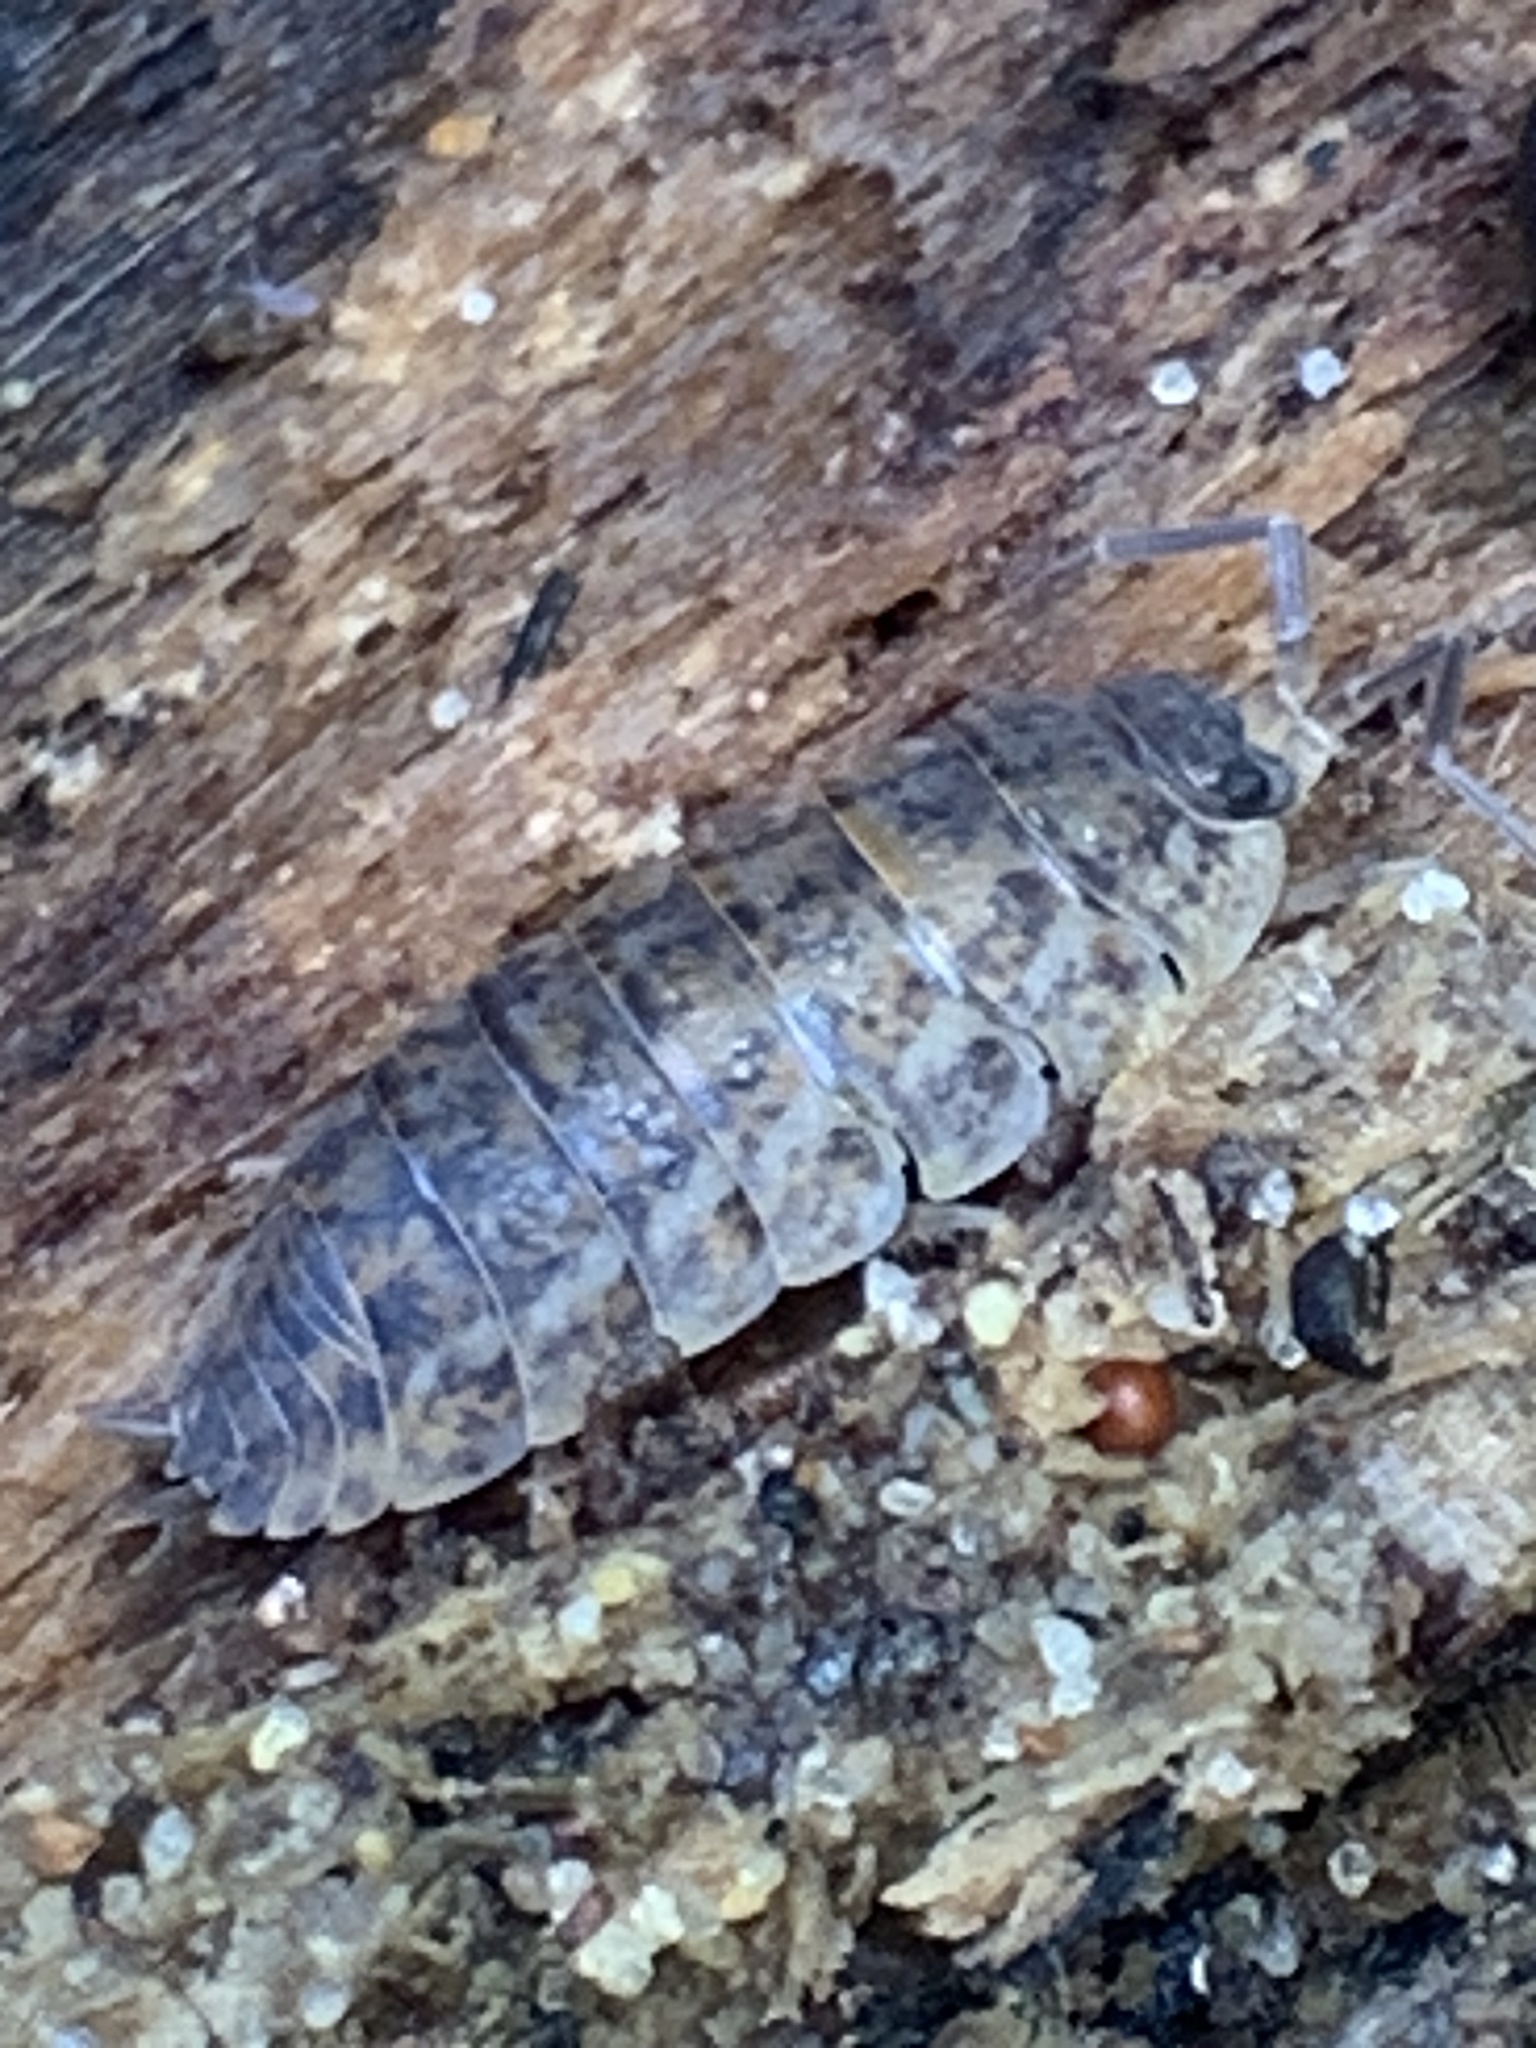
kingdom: Animalia
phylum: Arthropoda
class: Malacostraca
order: Isopoda
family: Trachelipodidae
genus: Trachelipus
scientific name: Trachelipus rathkii
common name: Isopod
